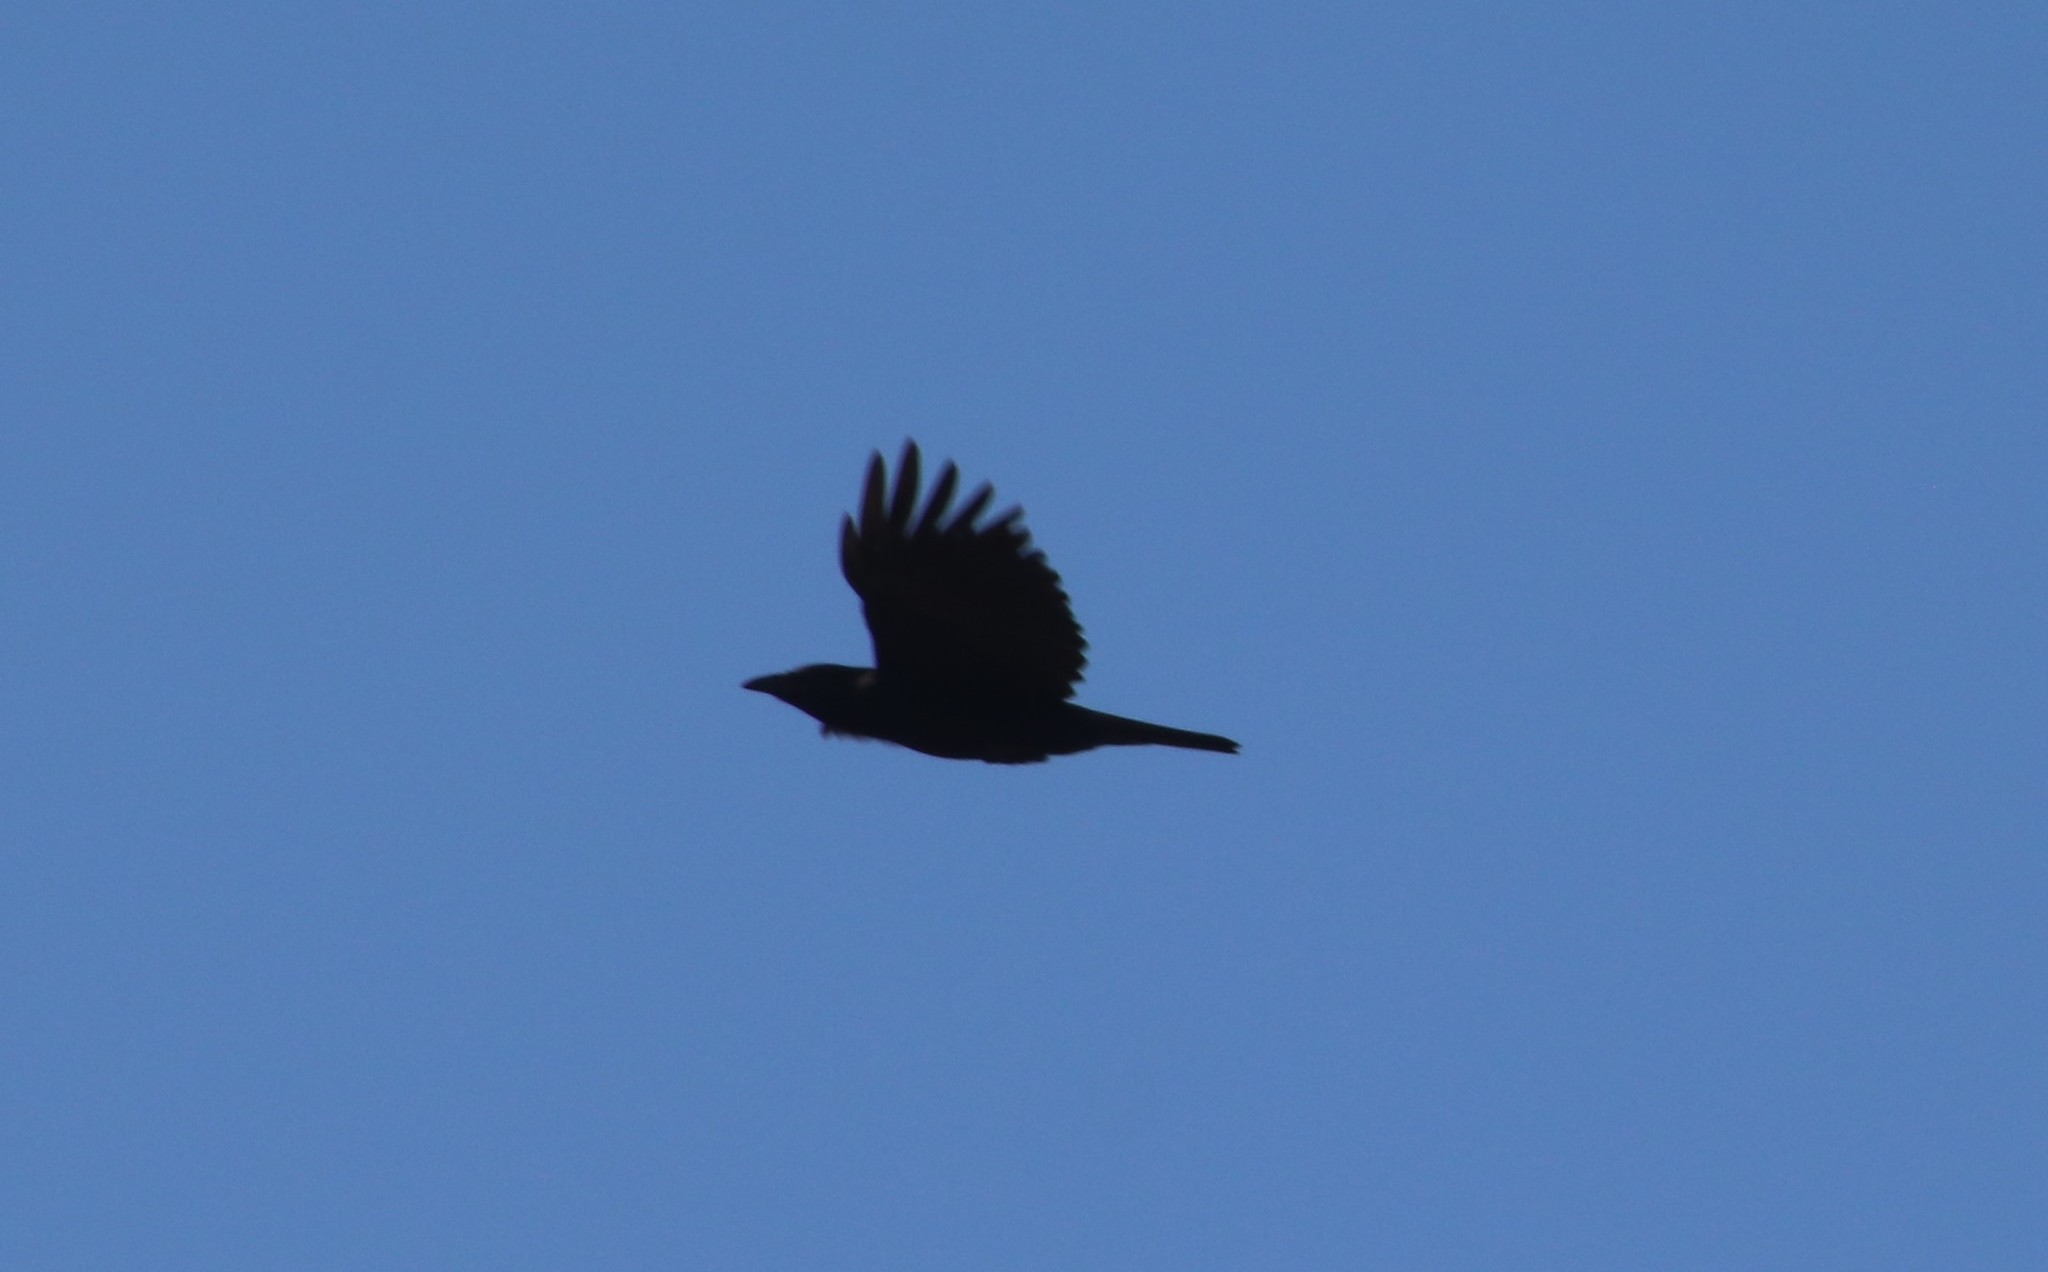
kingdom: Animalia
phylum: Chordata
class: Aves
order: Passeriformes
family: Corvidae
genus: Corvus
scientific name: Corvus brachyrhynchos
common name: American crow
